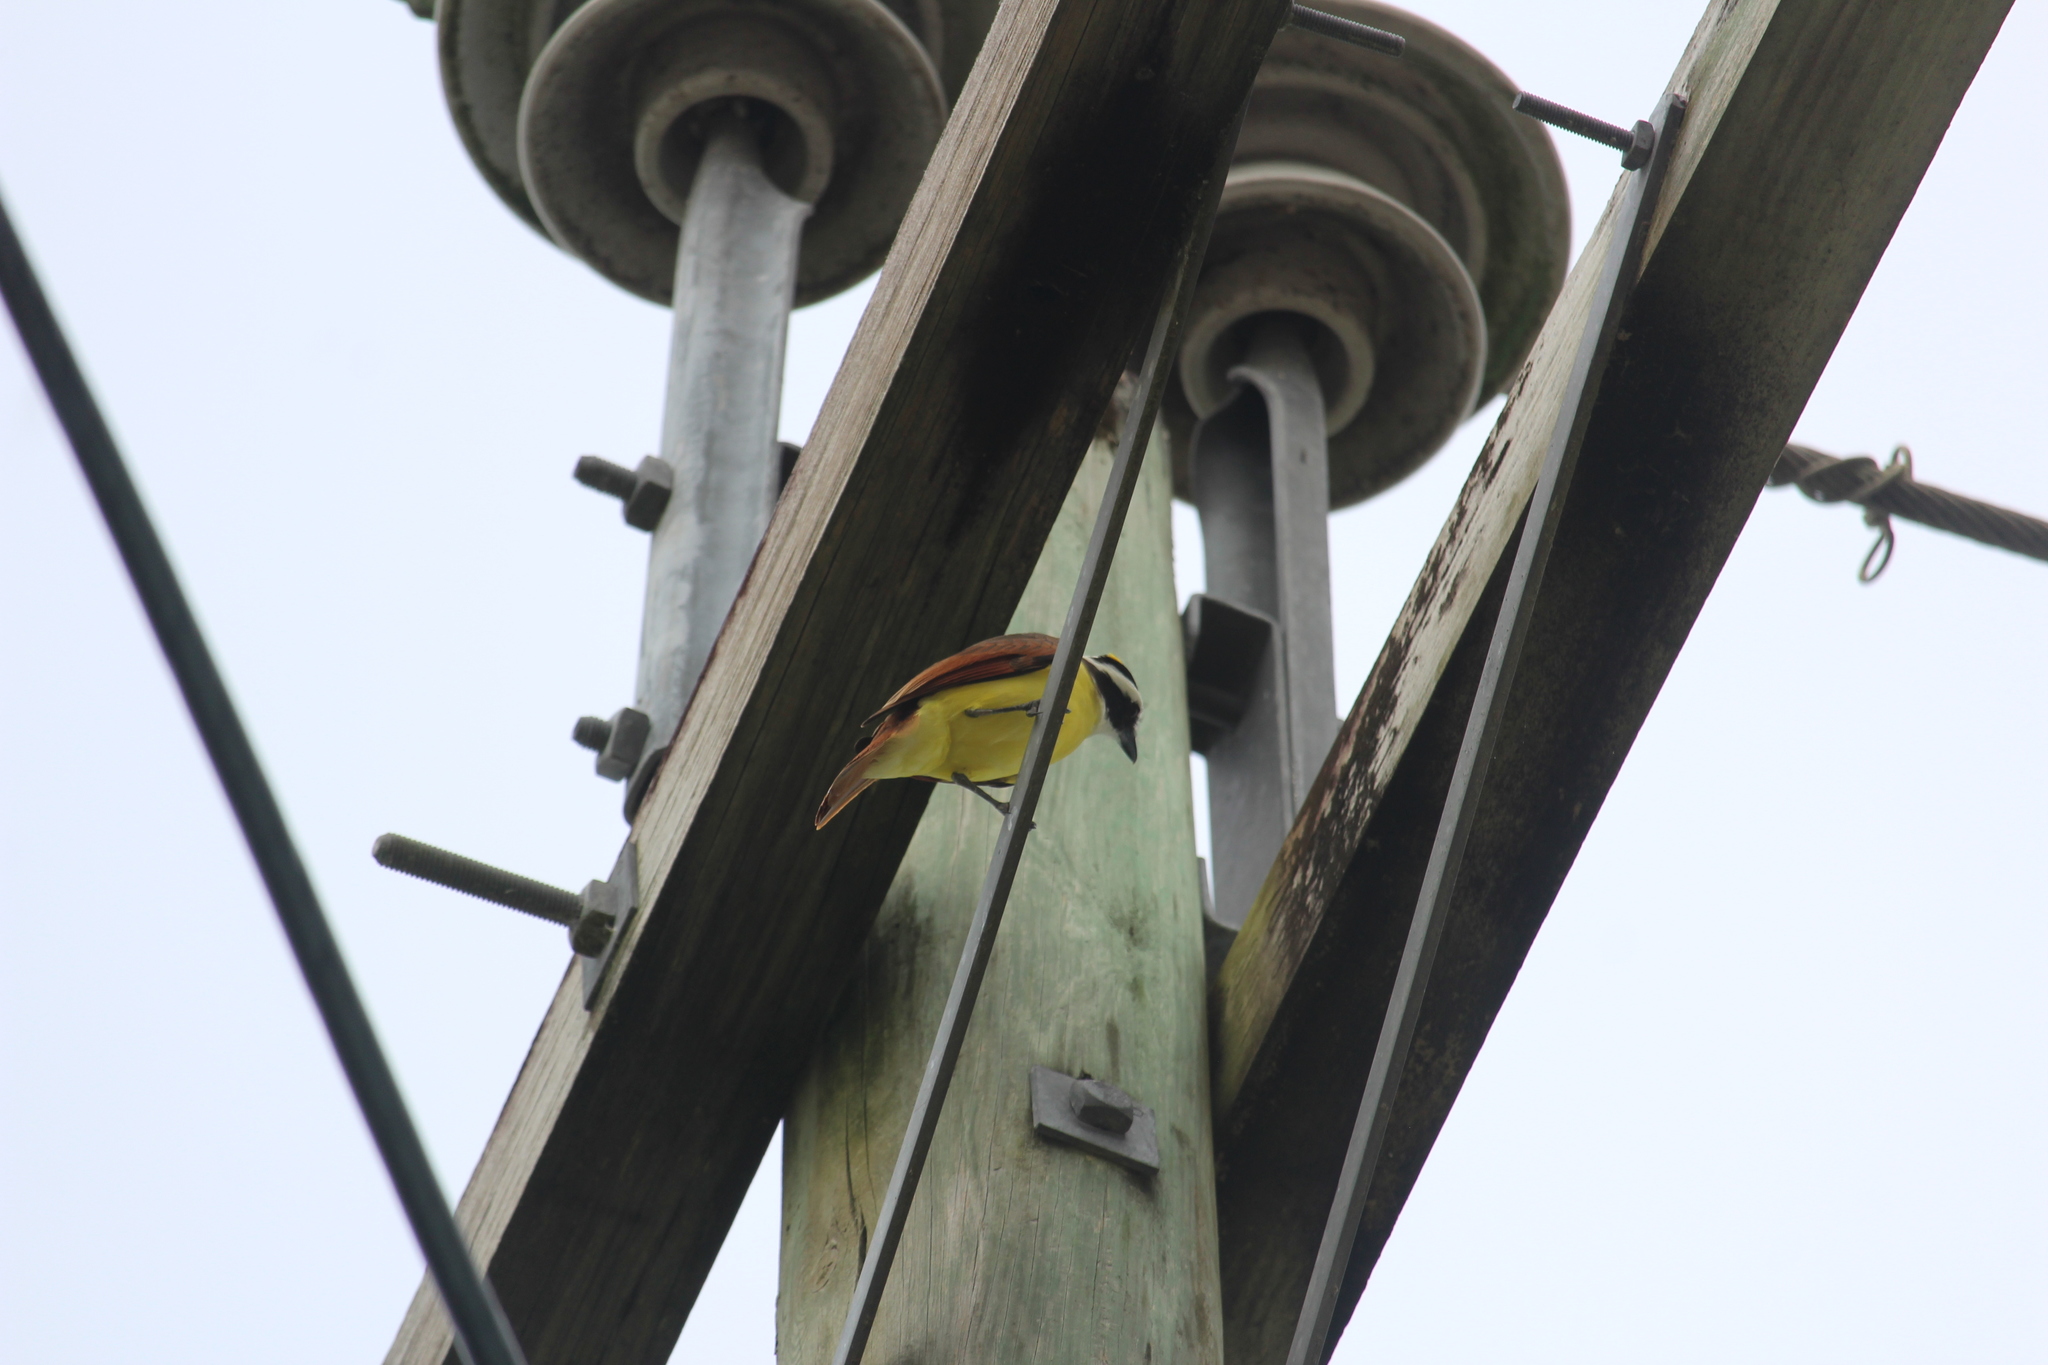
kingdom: Animalia
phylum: Chordata
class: Aves
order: Passeriformes
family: Tyrannidae
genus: Pitangus
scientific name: Pitangus sulphuratus
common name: Great kiskadee
